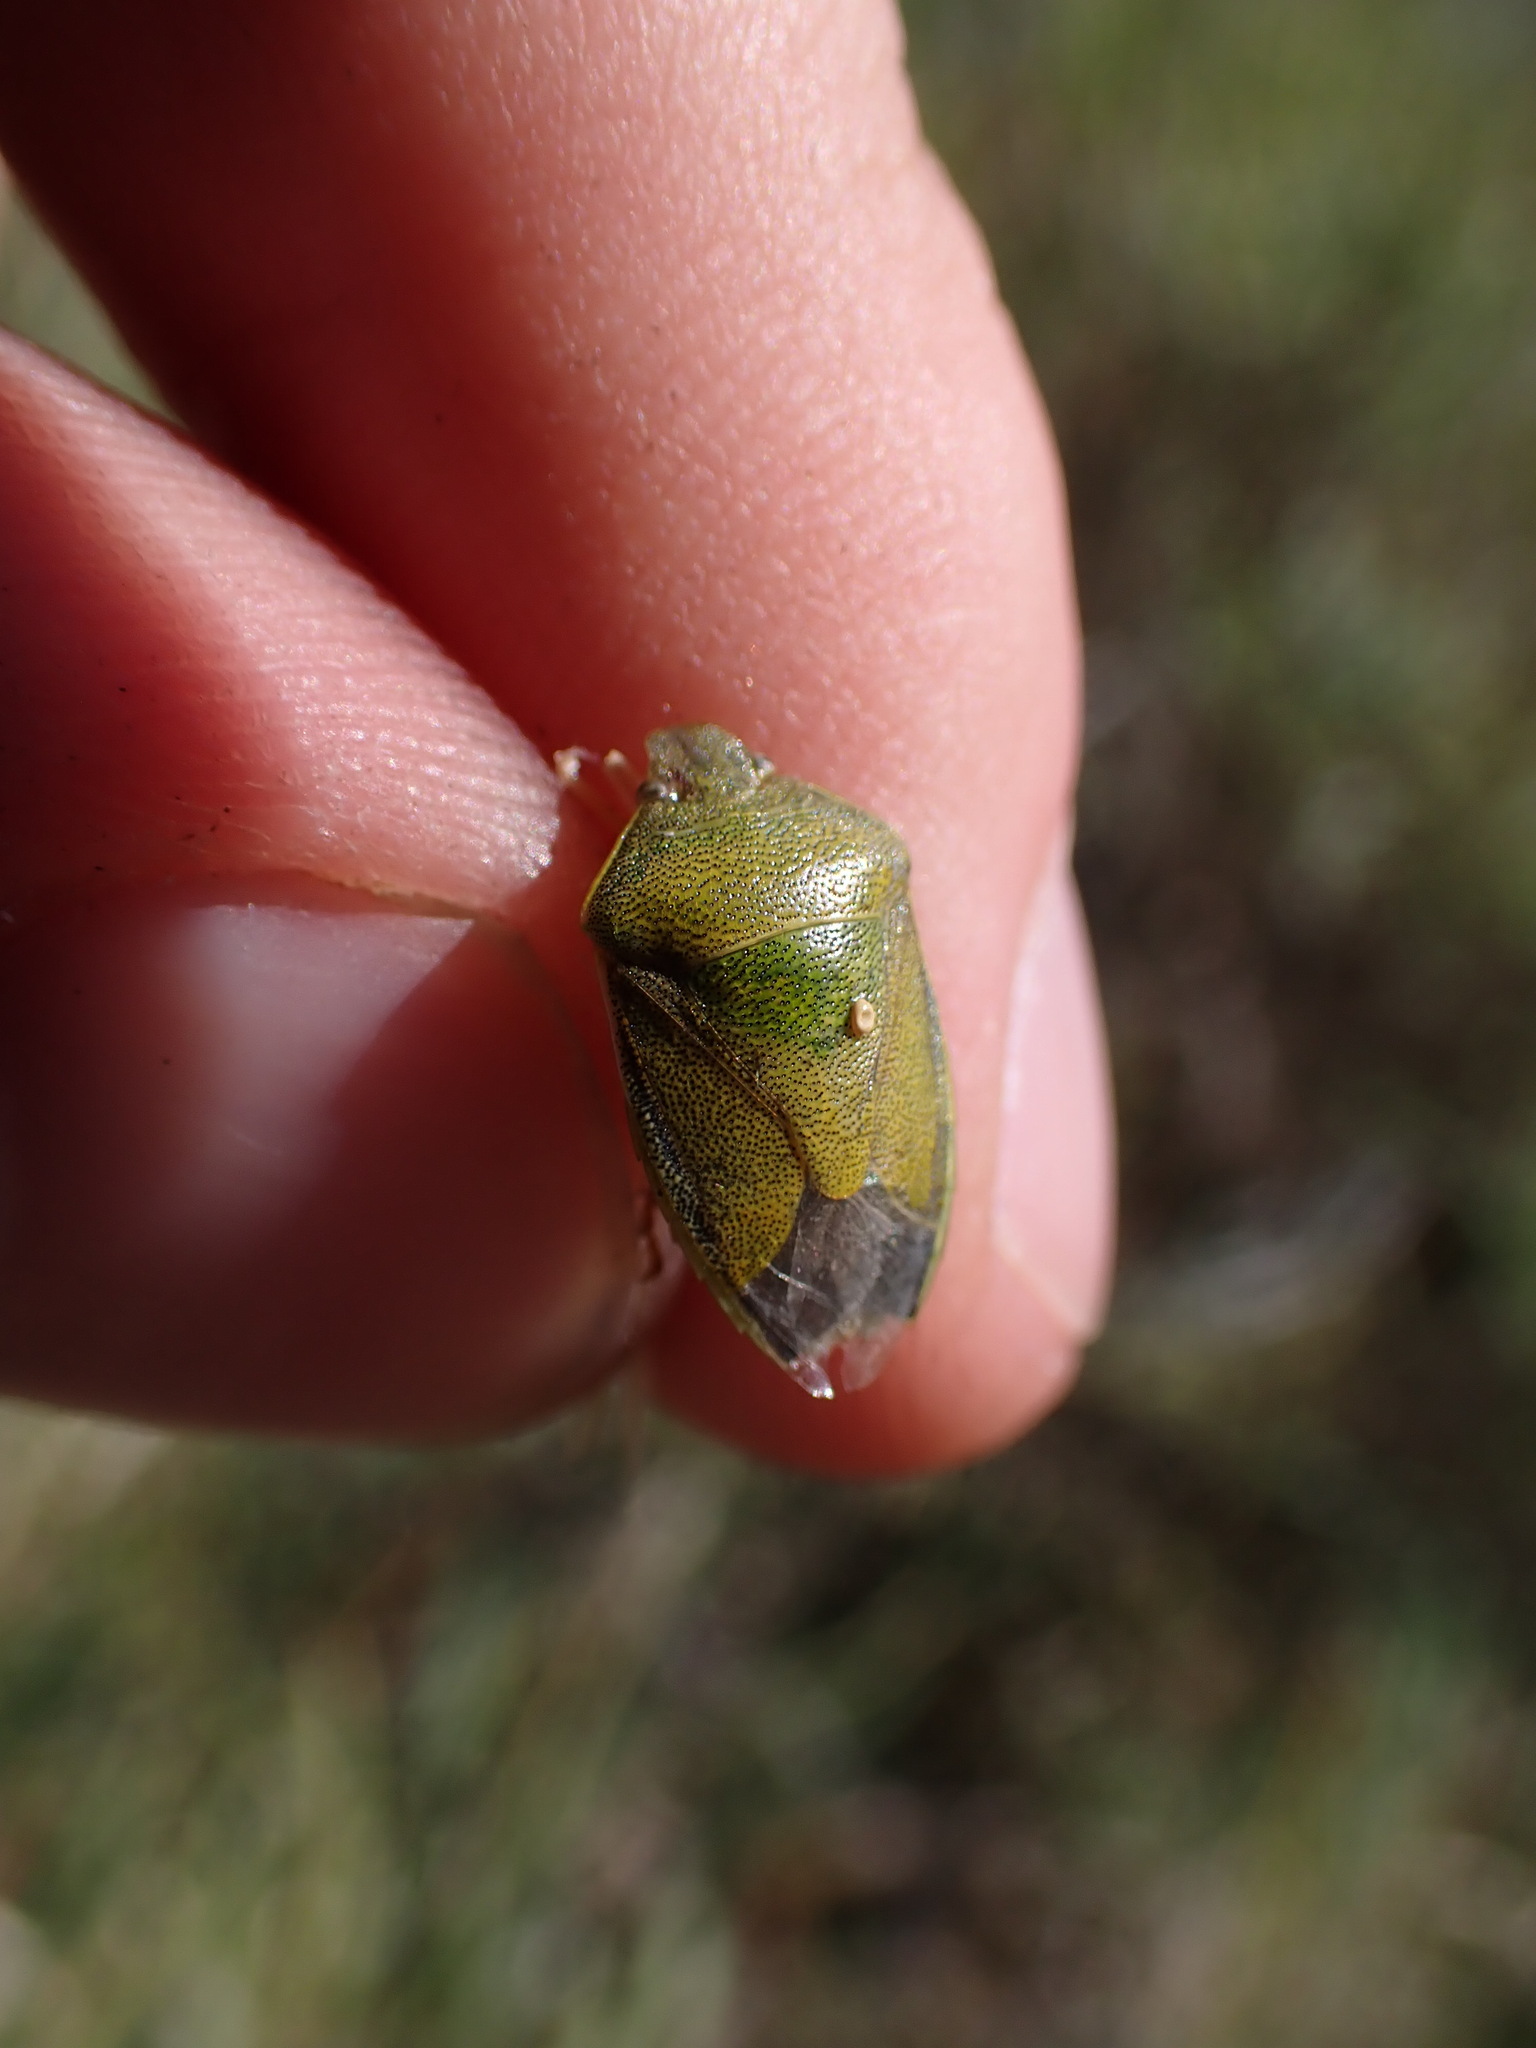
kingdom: Animalia
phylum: Arthropoda
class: Insecta
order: Hemiptera
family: Pentatomidae
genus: Piezodorus
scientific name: Piezodorus lituratus
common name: Stink bug
